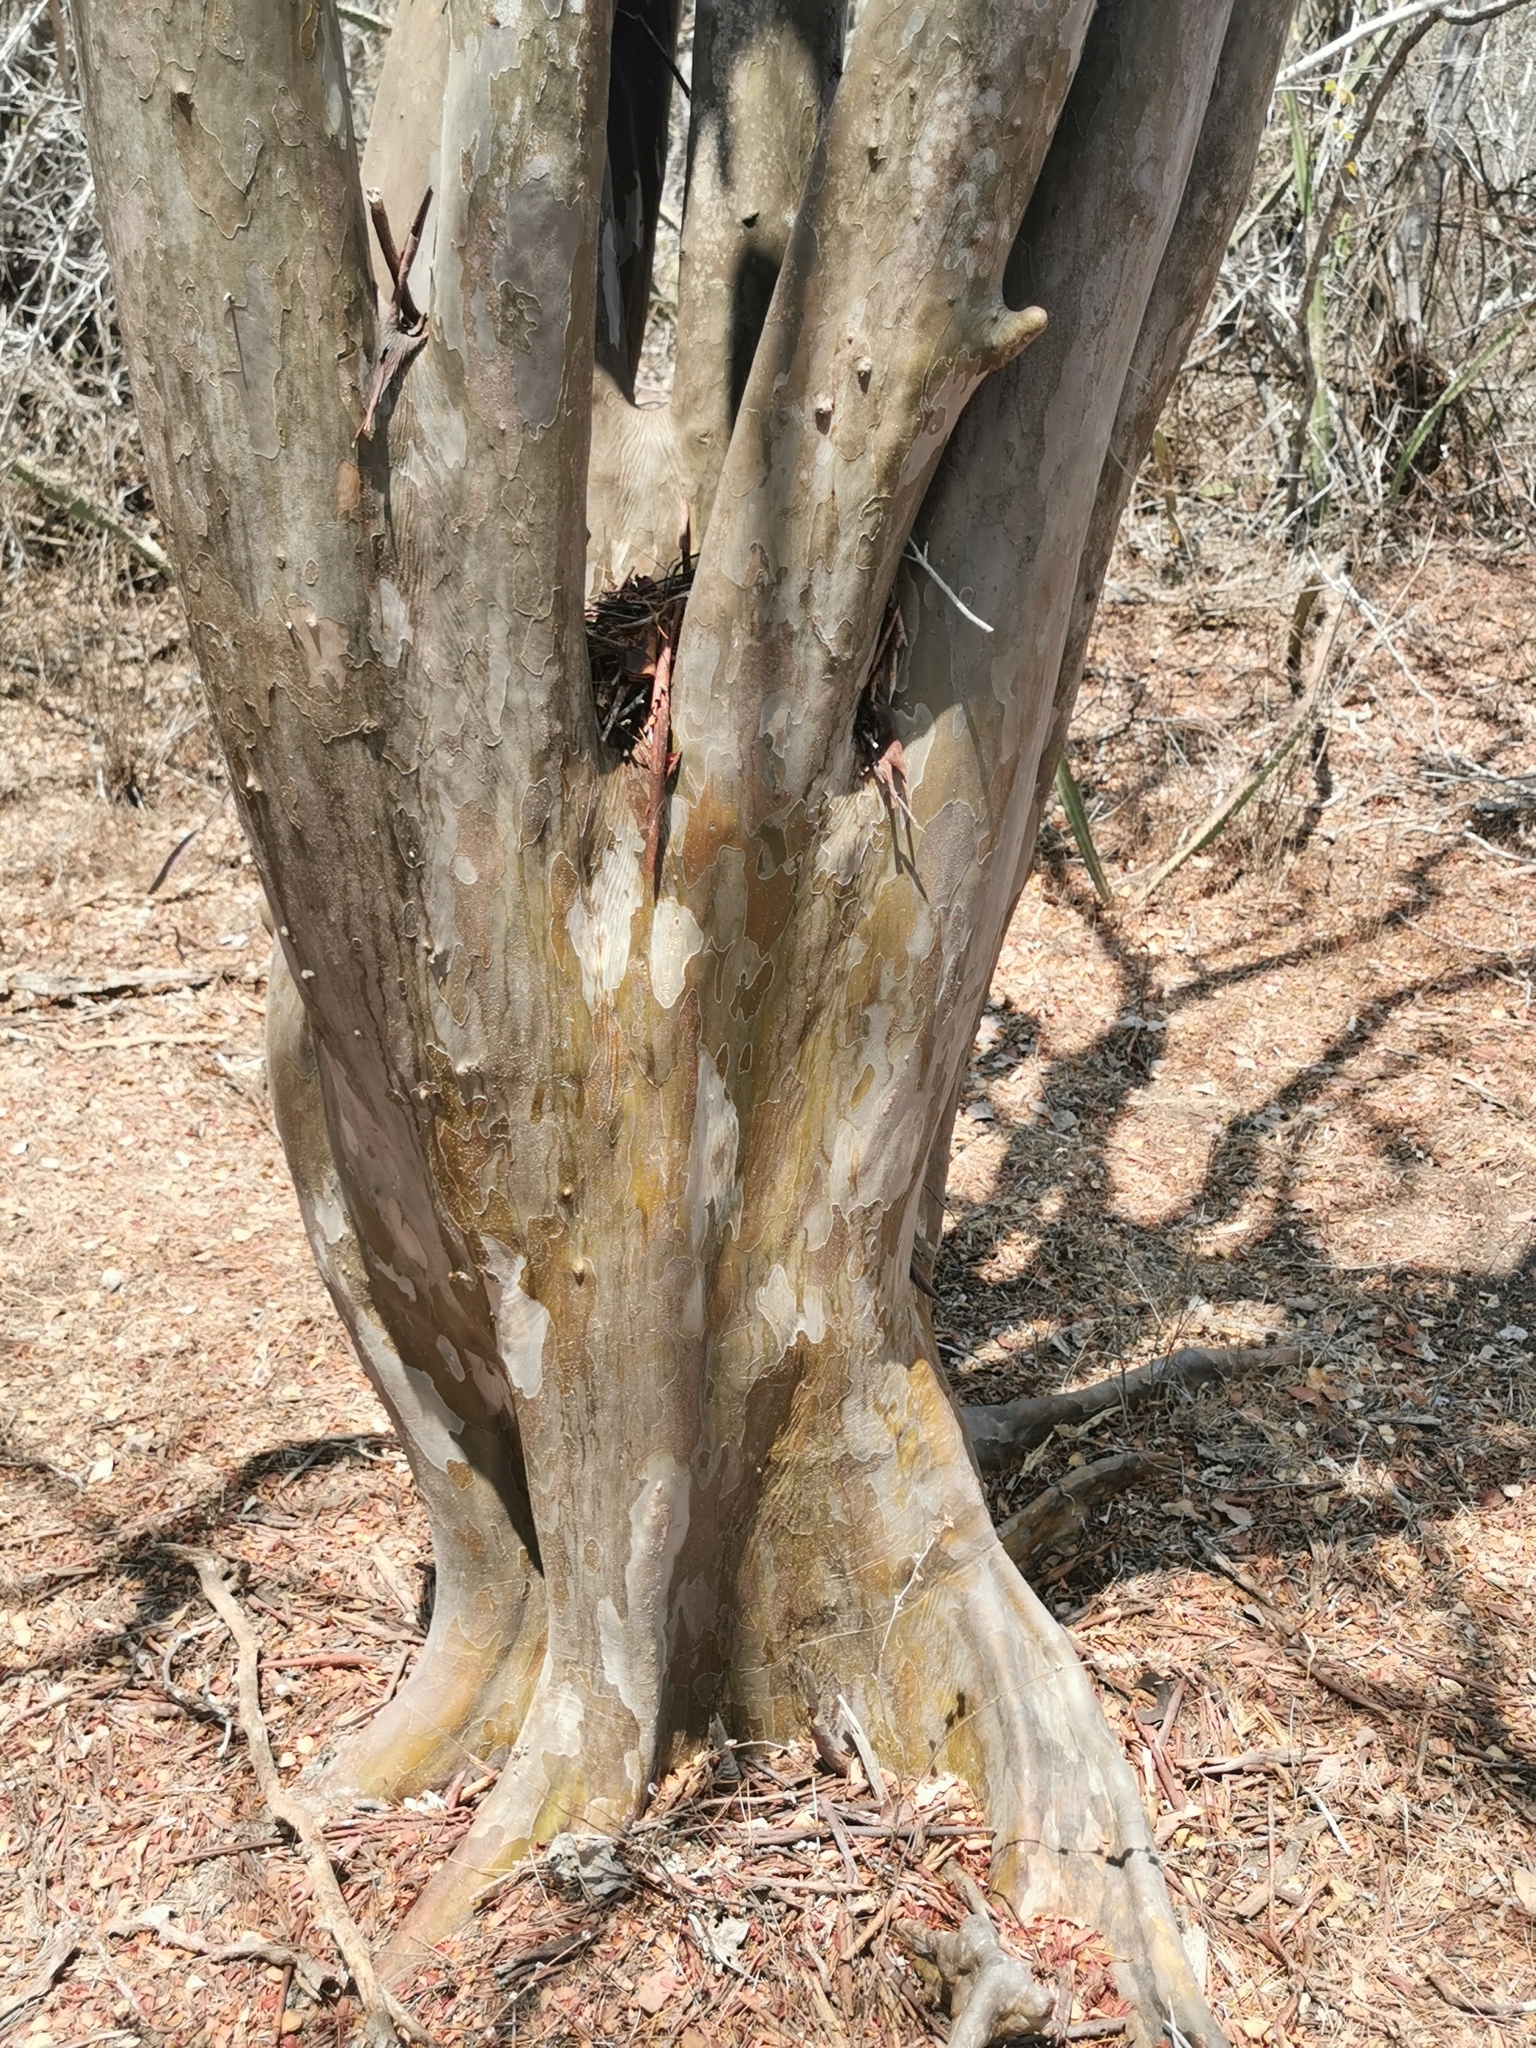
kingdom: Plantae
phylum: Tracheophyta
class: Magnoliopsida
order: Fabales
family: Fabaceae
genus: Libidibia
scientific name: Libidibia sclerocarpa
